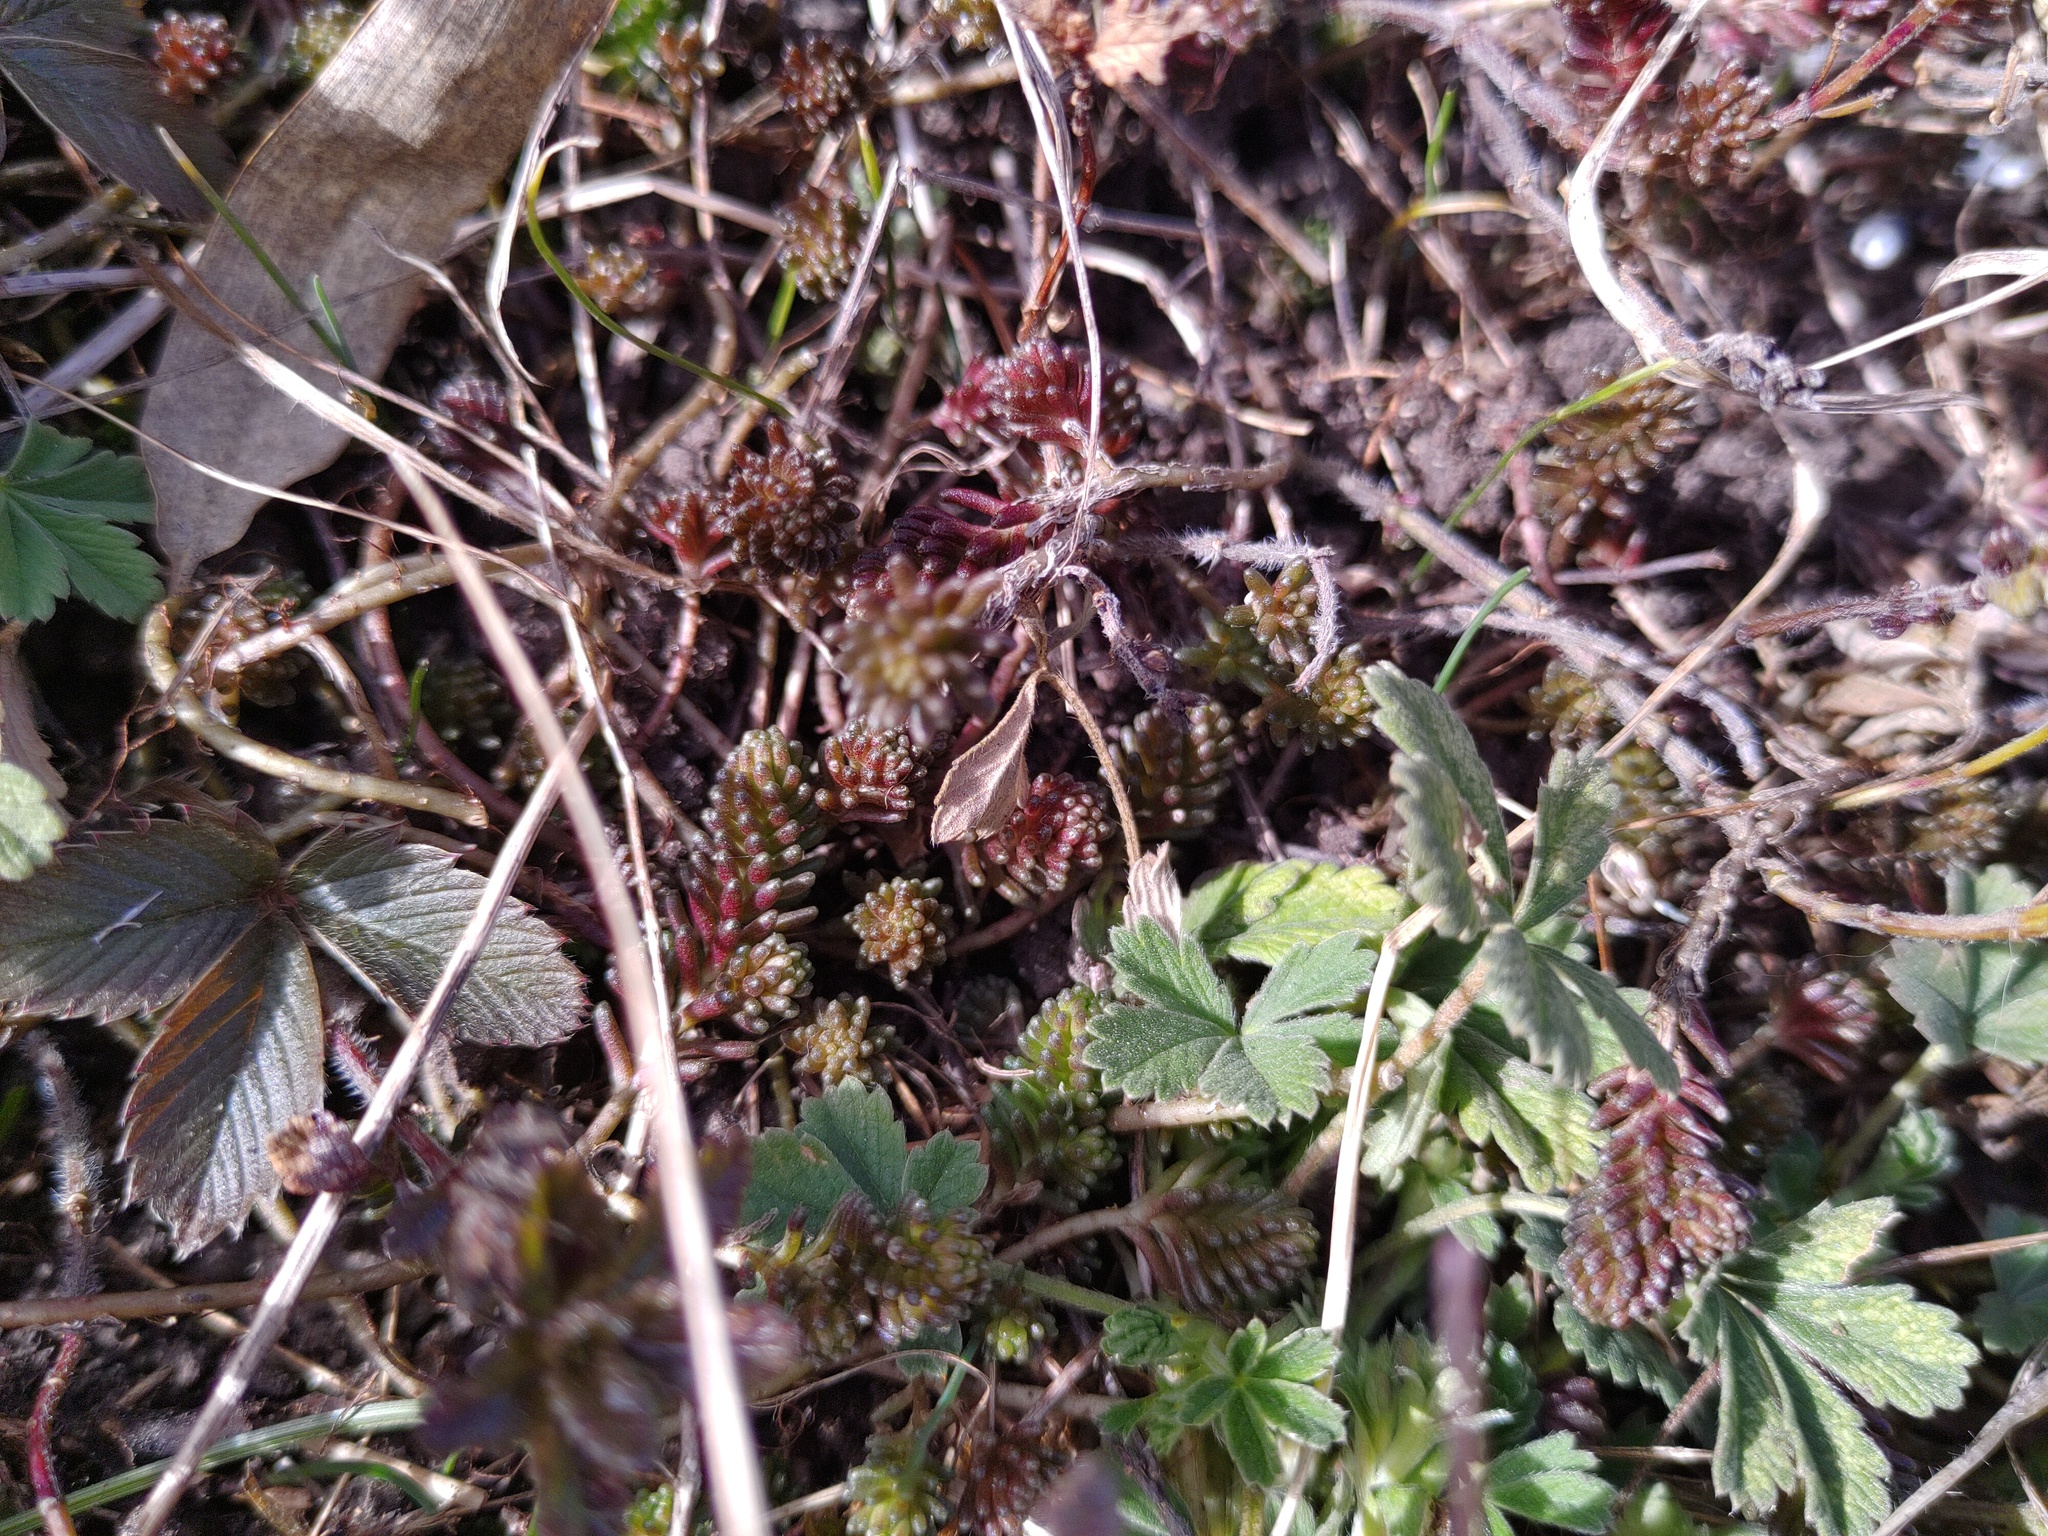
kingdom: Plantae
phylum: Tracheophyta
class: Magnoliopsida
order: Saxifragales
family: Crassulaceae
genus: Sedum
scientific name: Sedum sexangulare
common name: Tasteless stonecrop
